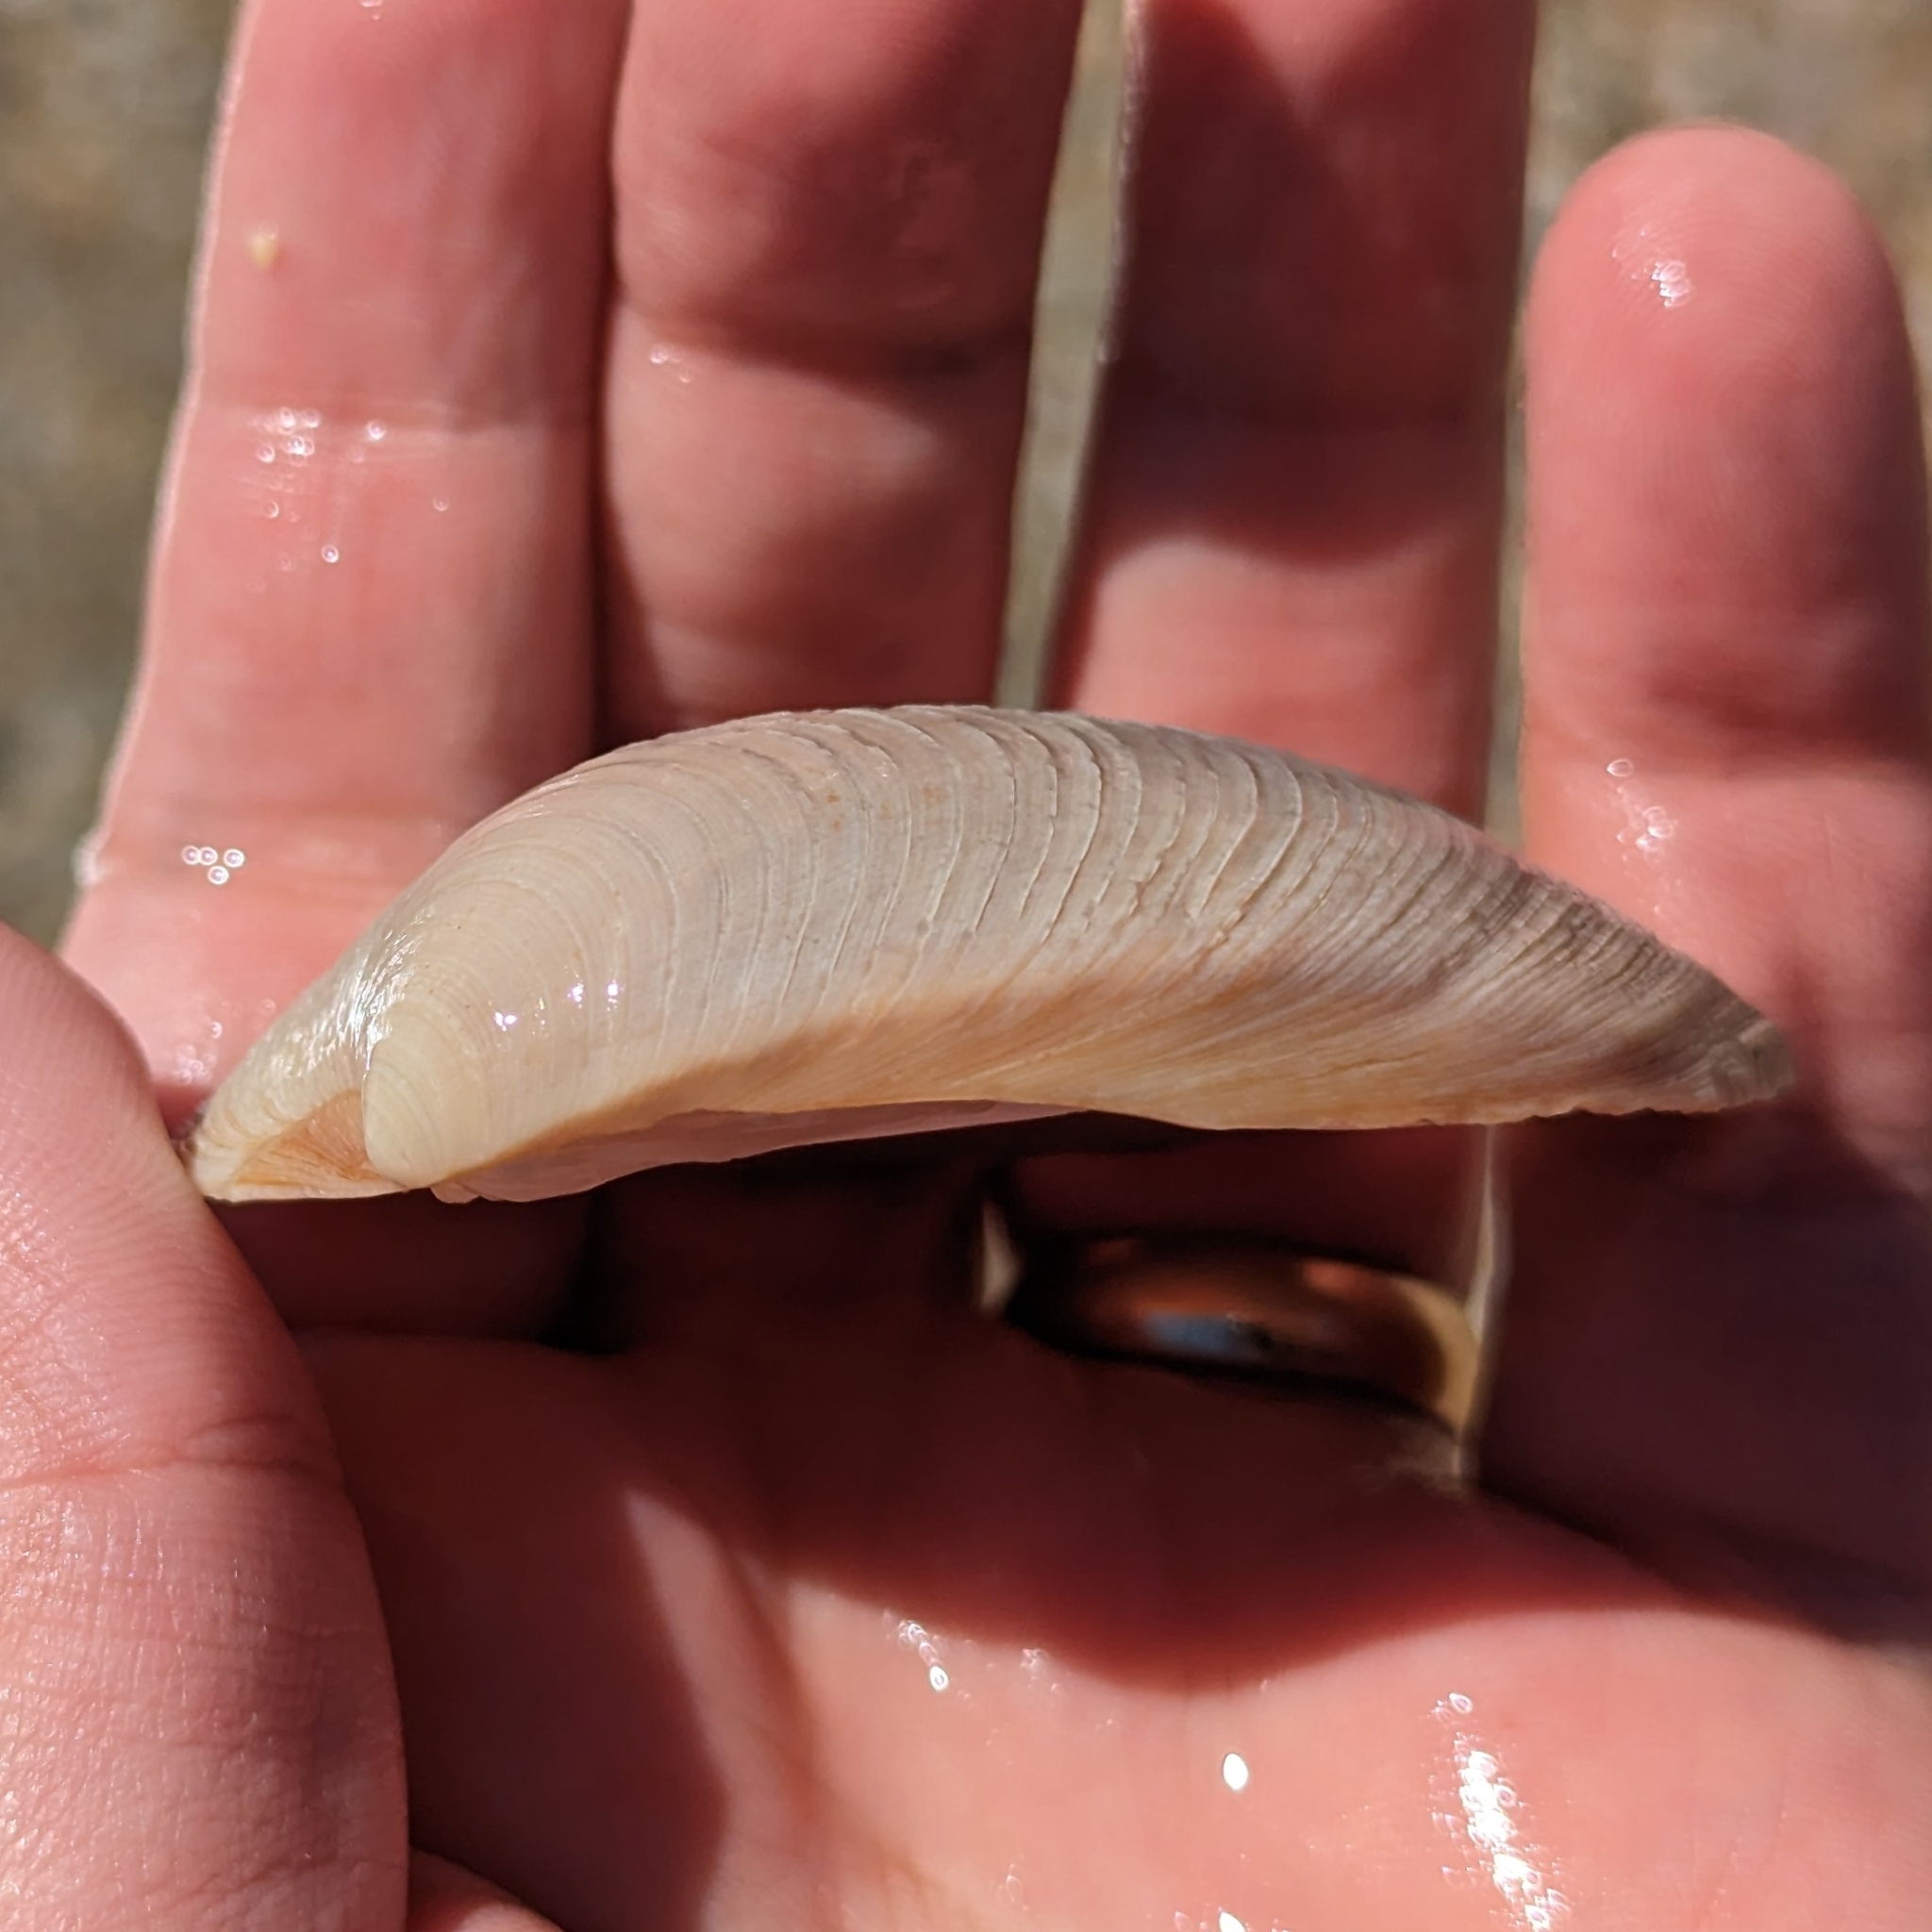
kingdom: Animalia
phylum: Mollusca
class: Bivalvia
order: Venerida
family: Veneridae
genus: Mercenaria
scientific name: Mercenaria campechiensis
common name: Südliche quahog-muschel
